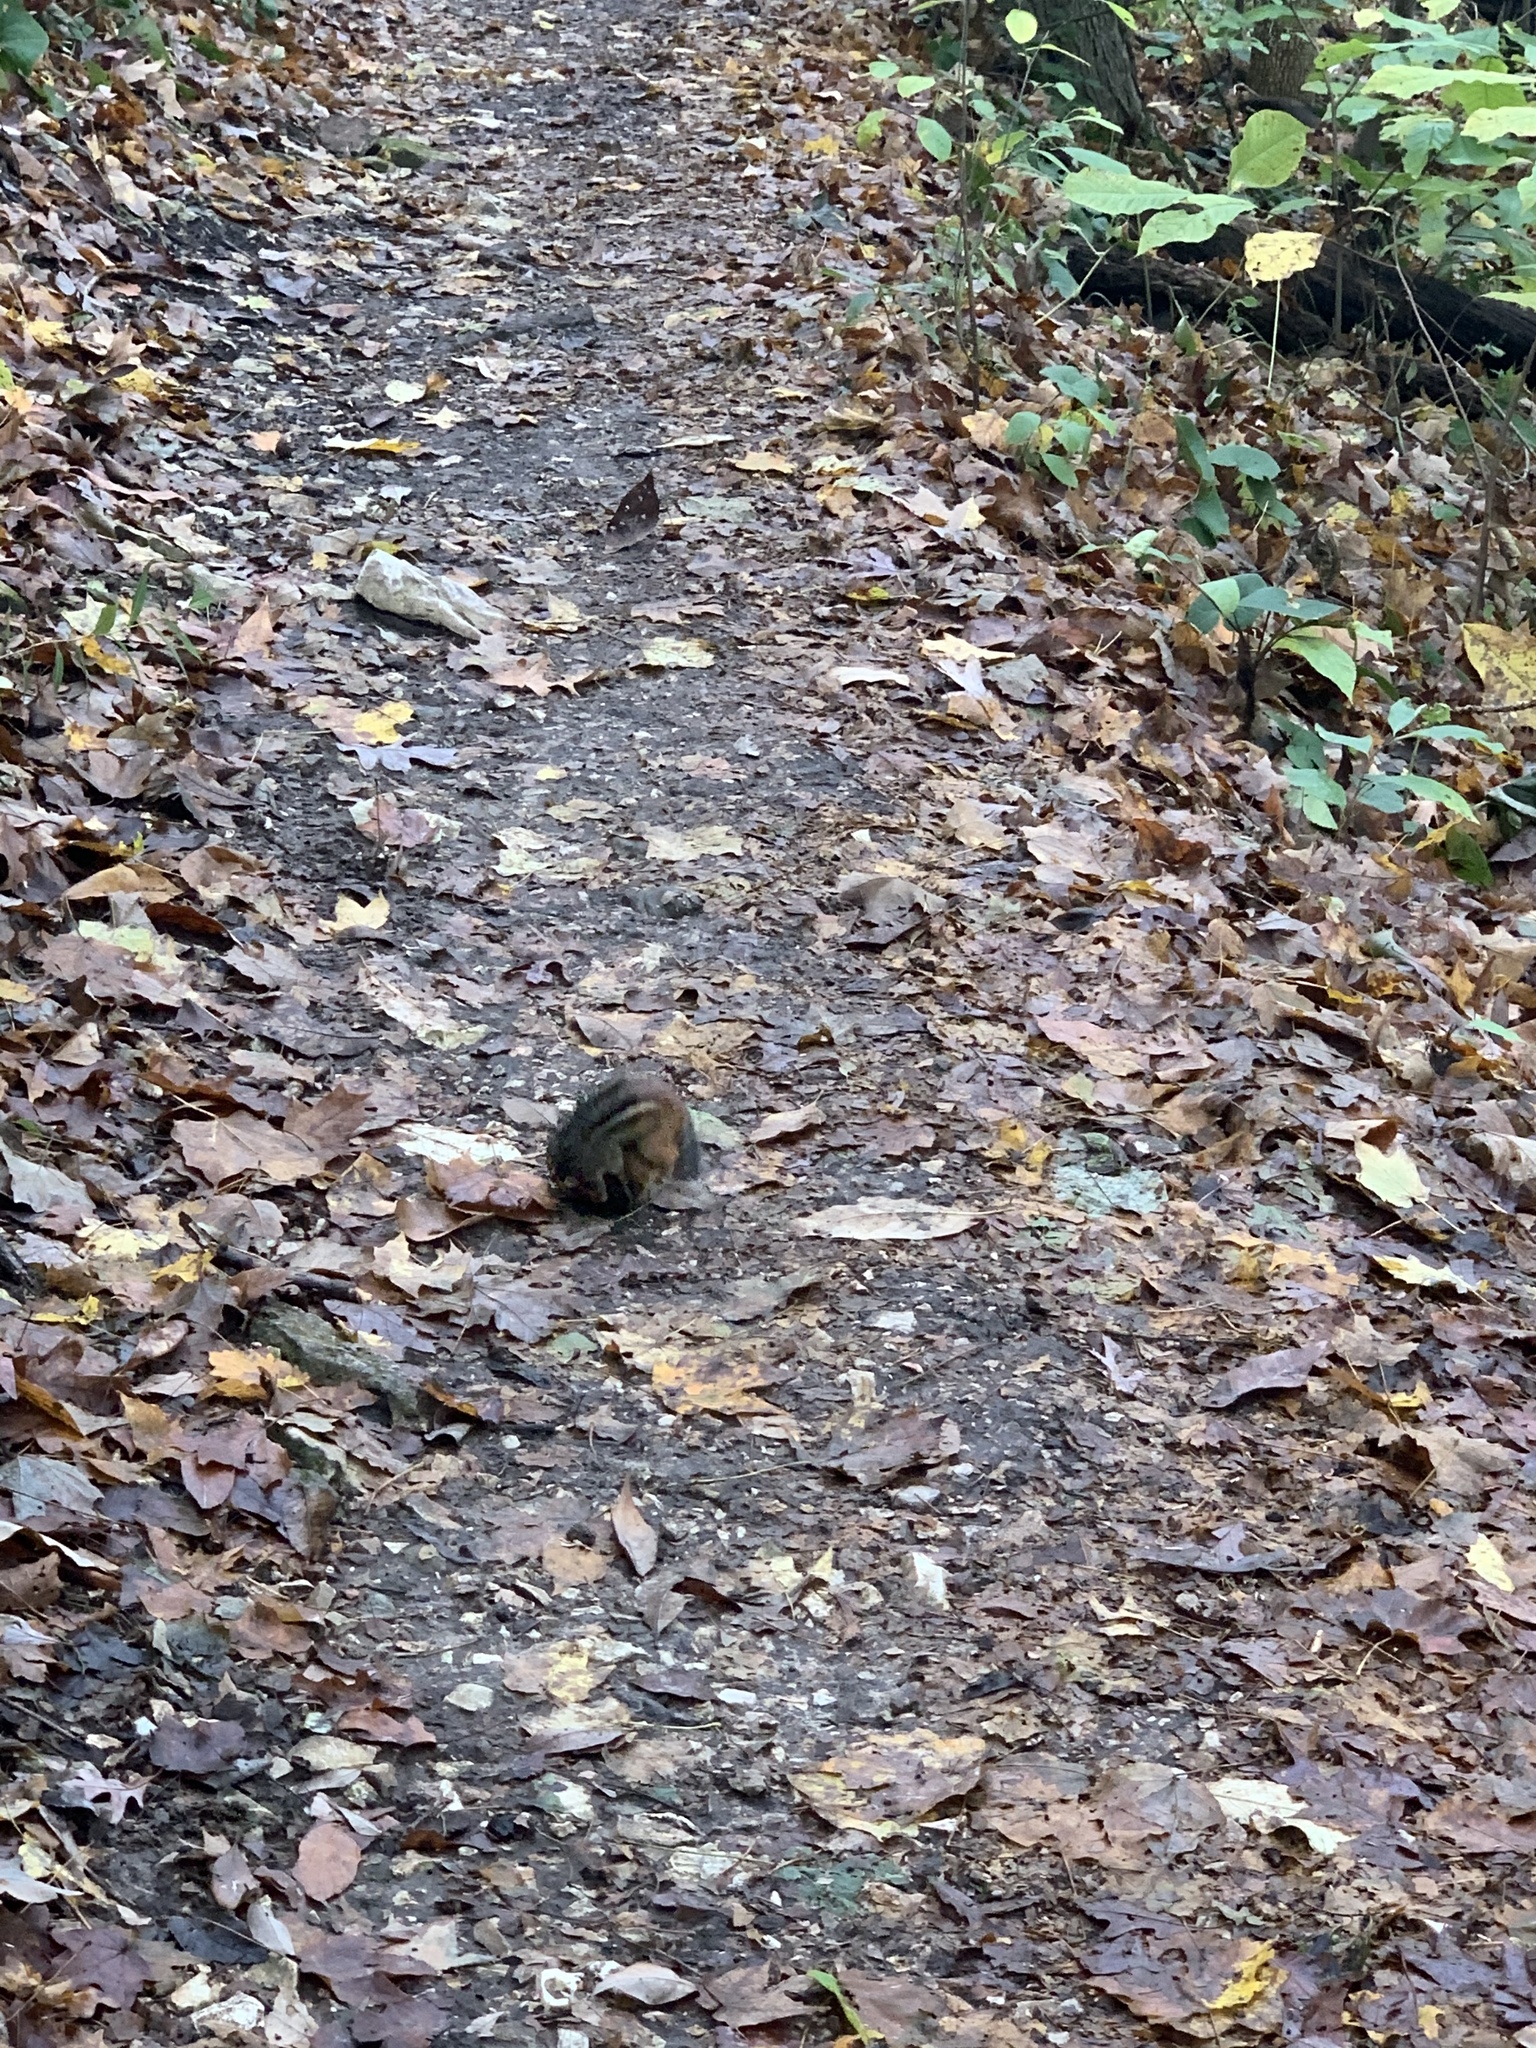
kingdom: Animalia
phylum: Chordata
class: Mammalia
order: Rodentia
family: Sciuridae
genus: Tamias
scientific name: Tamias striatus
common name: Eastern chipmunk
